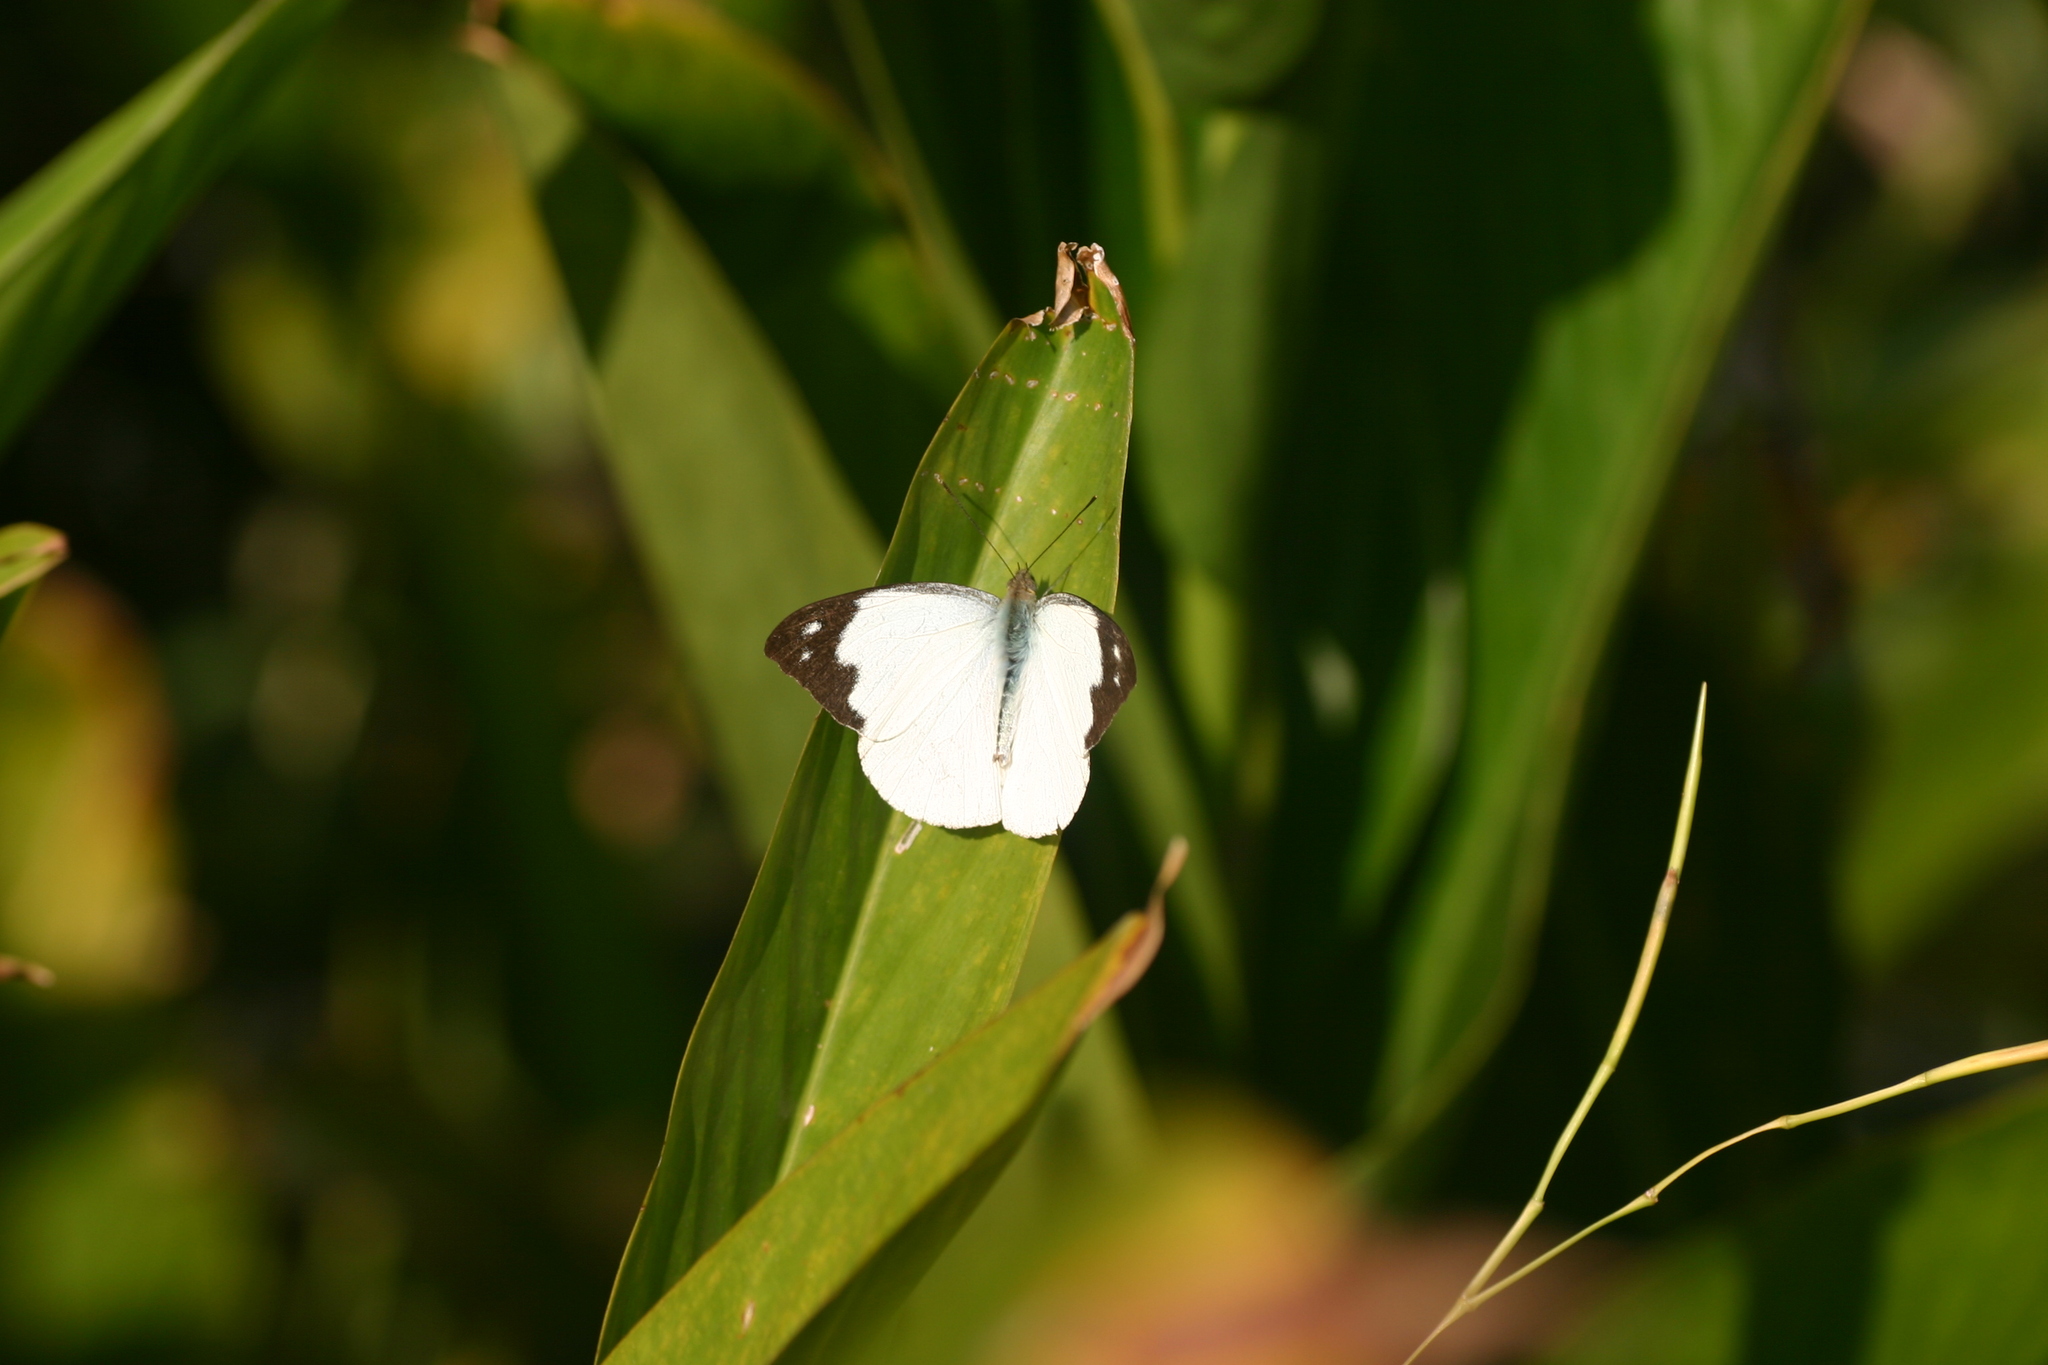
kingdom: Animalia
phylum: Arthropoda
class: Insecta
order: Lepidoptera
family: Pieridae
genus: Appias
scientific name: Appias indra
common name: Plain puffin
